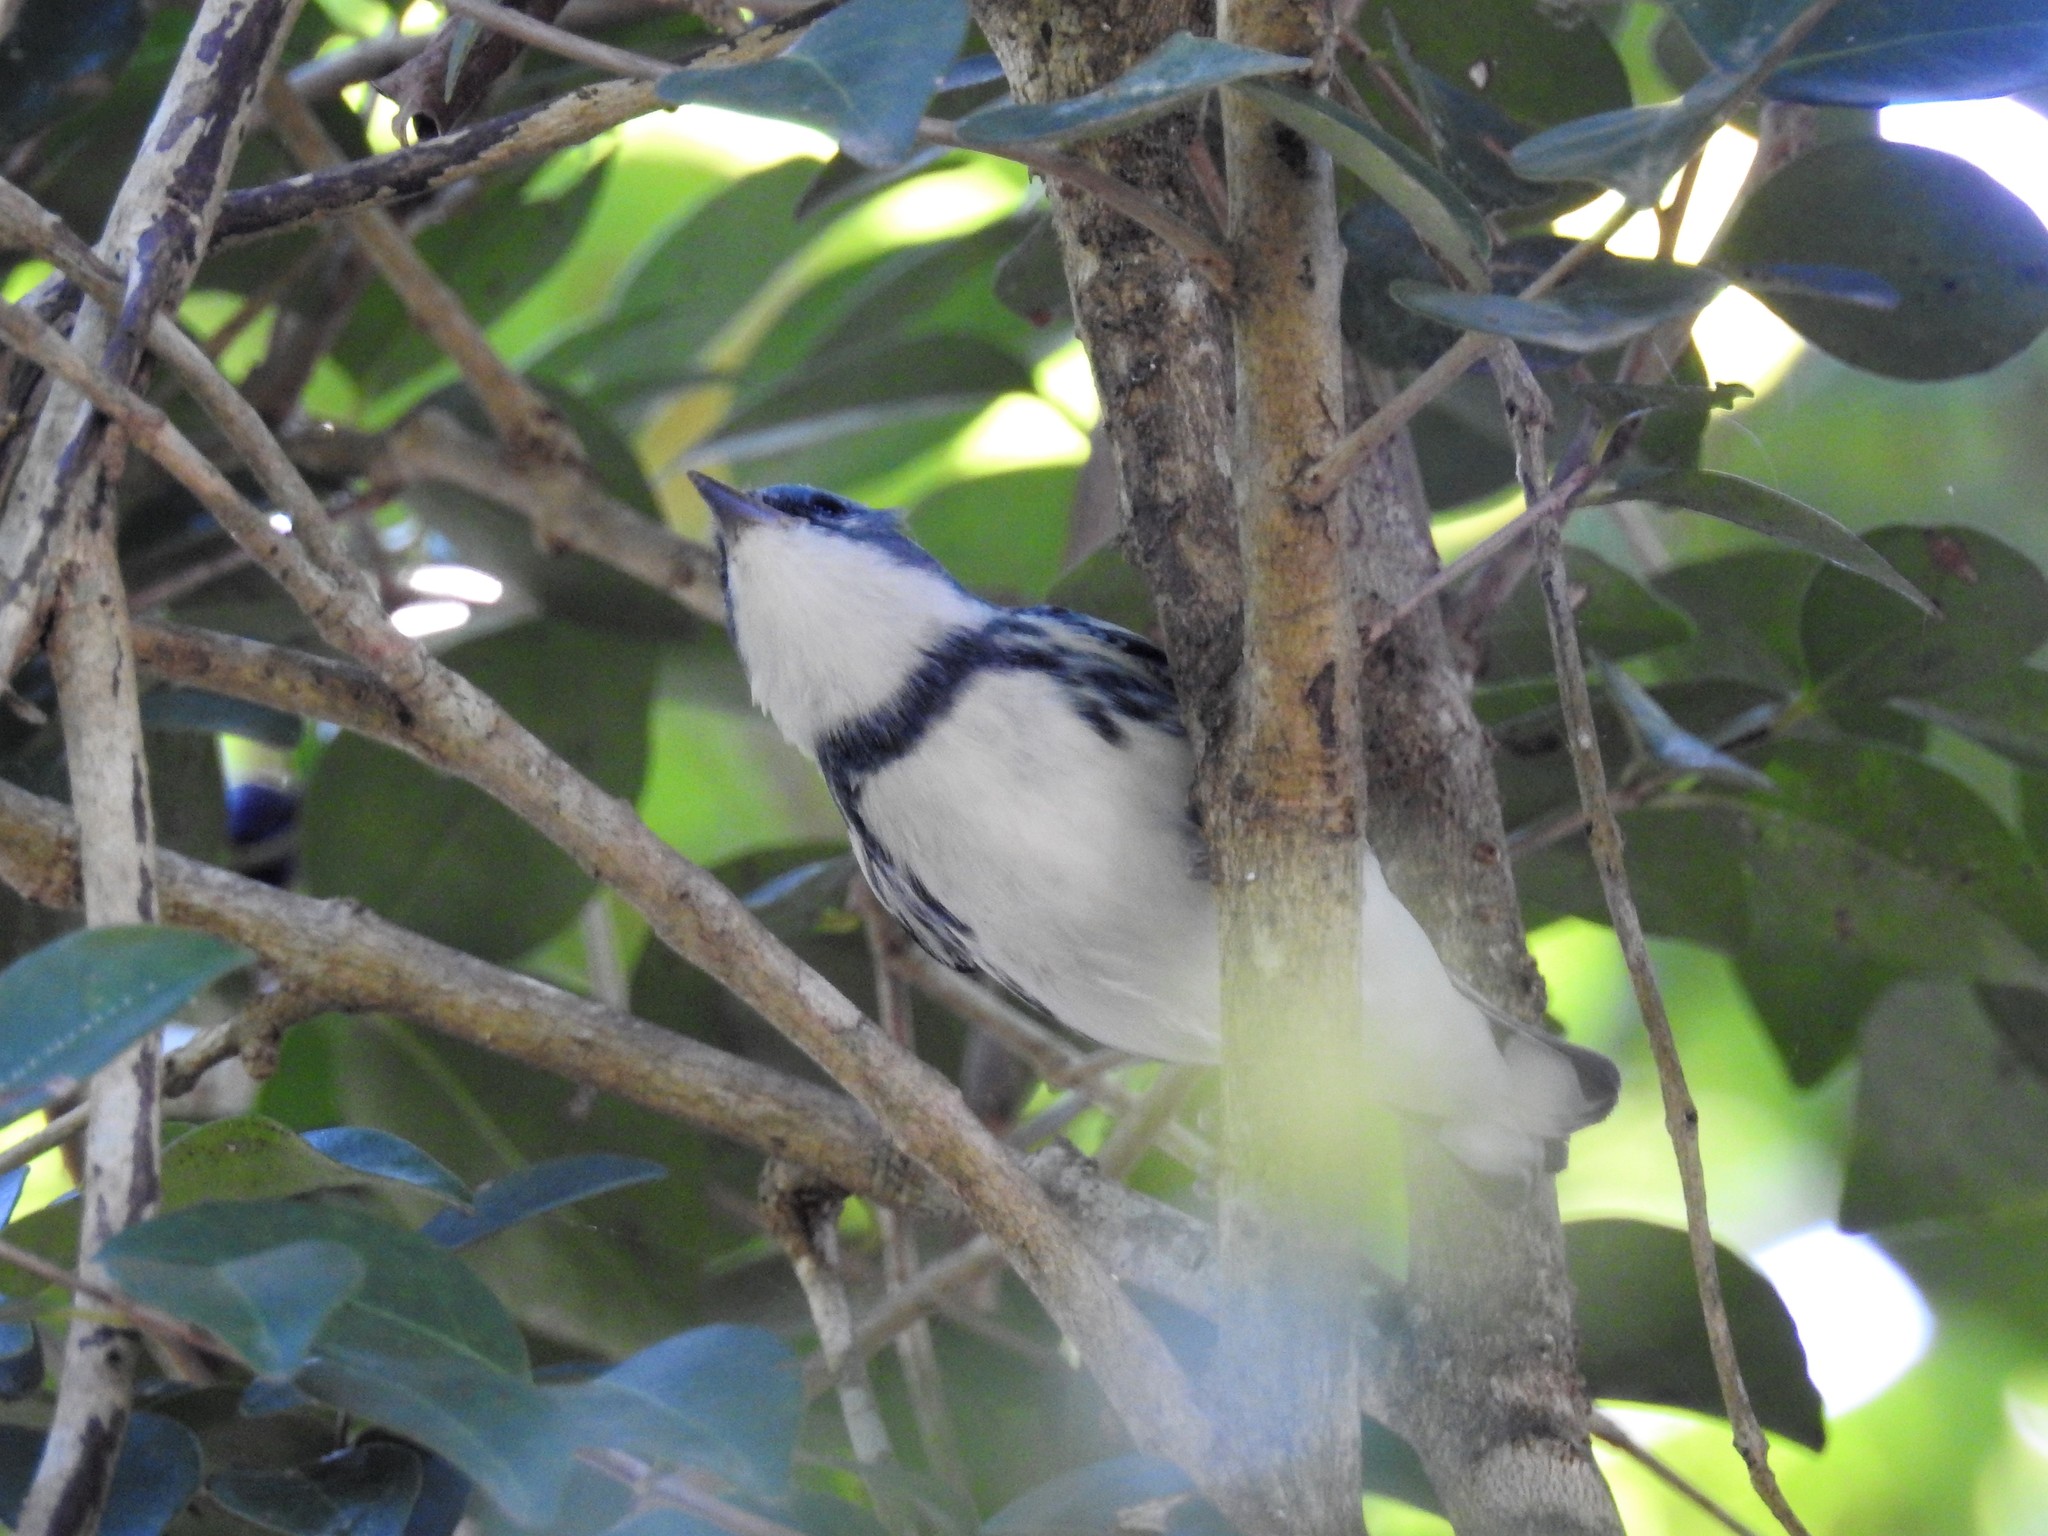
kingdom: Animalia
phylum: Chordata
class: Aves
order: Passeriformes
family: Parulidae
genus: Setophaga
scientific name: Setophaga cerulea
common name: Cerulean warbler
